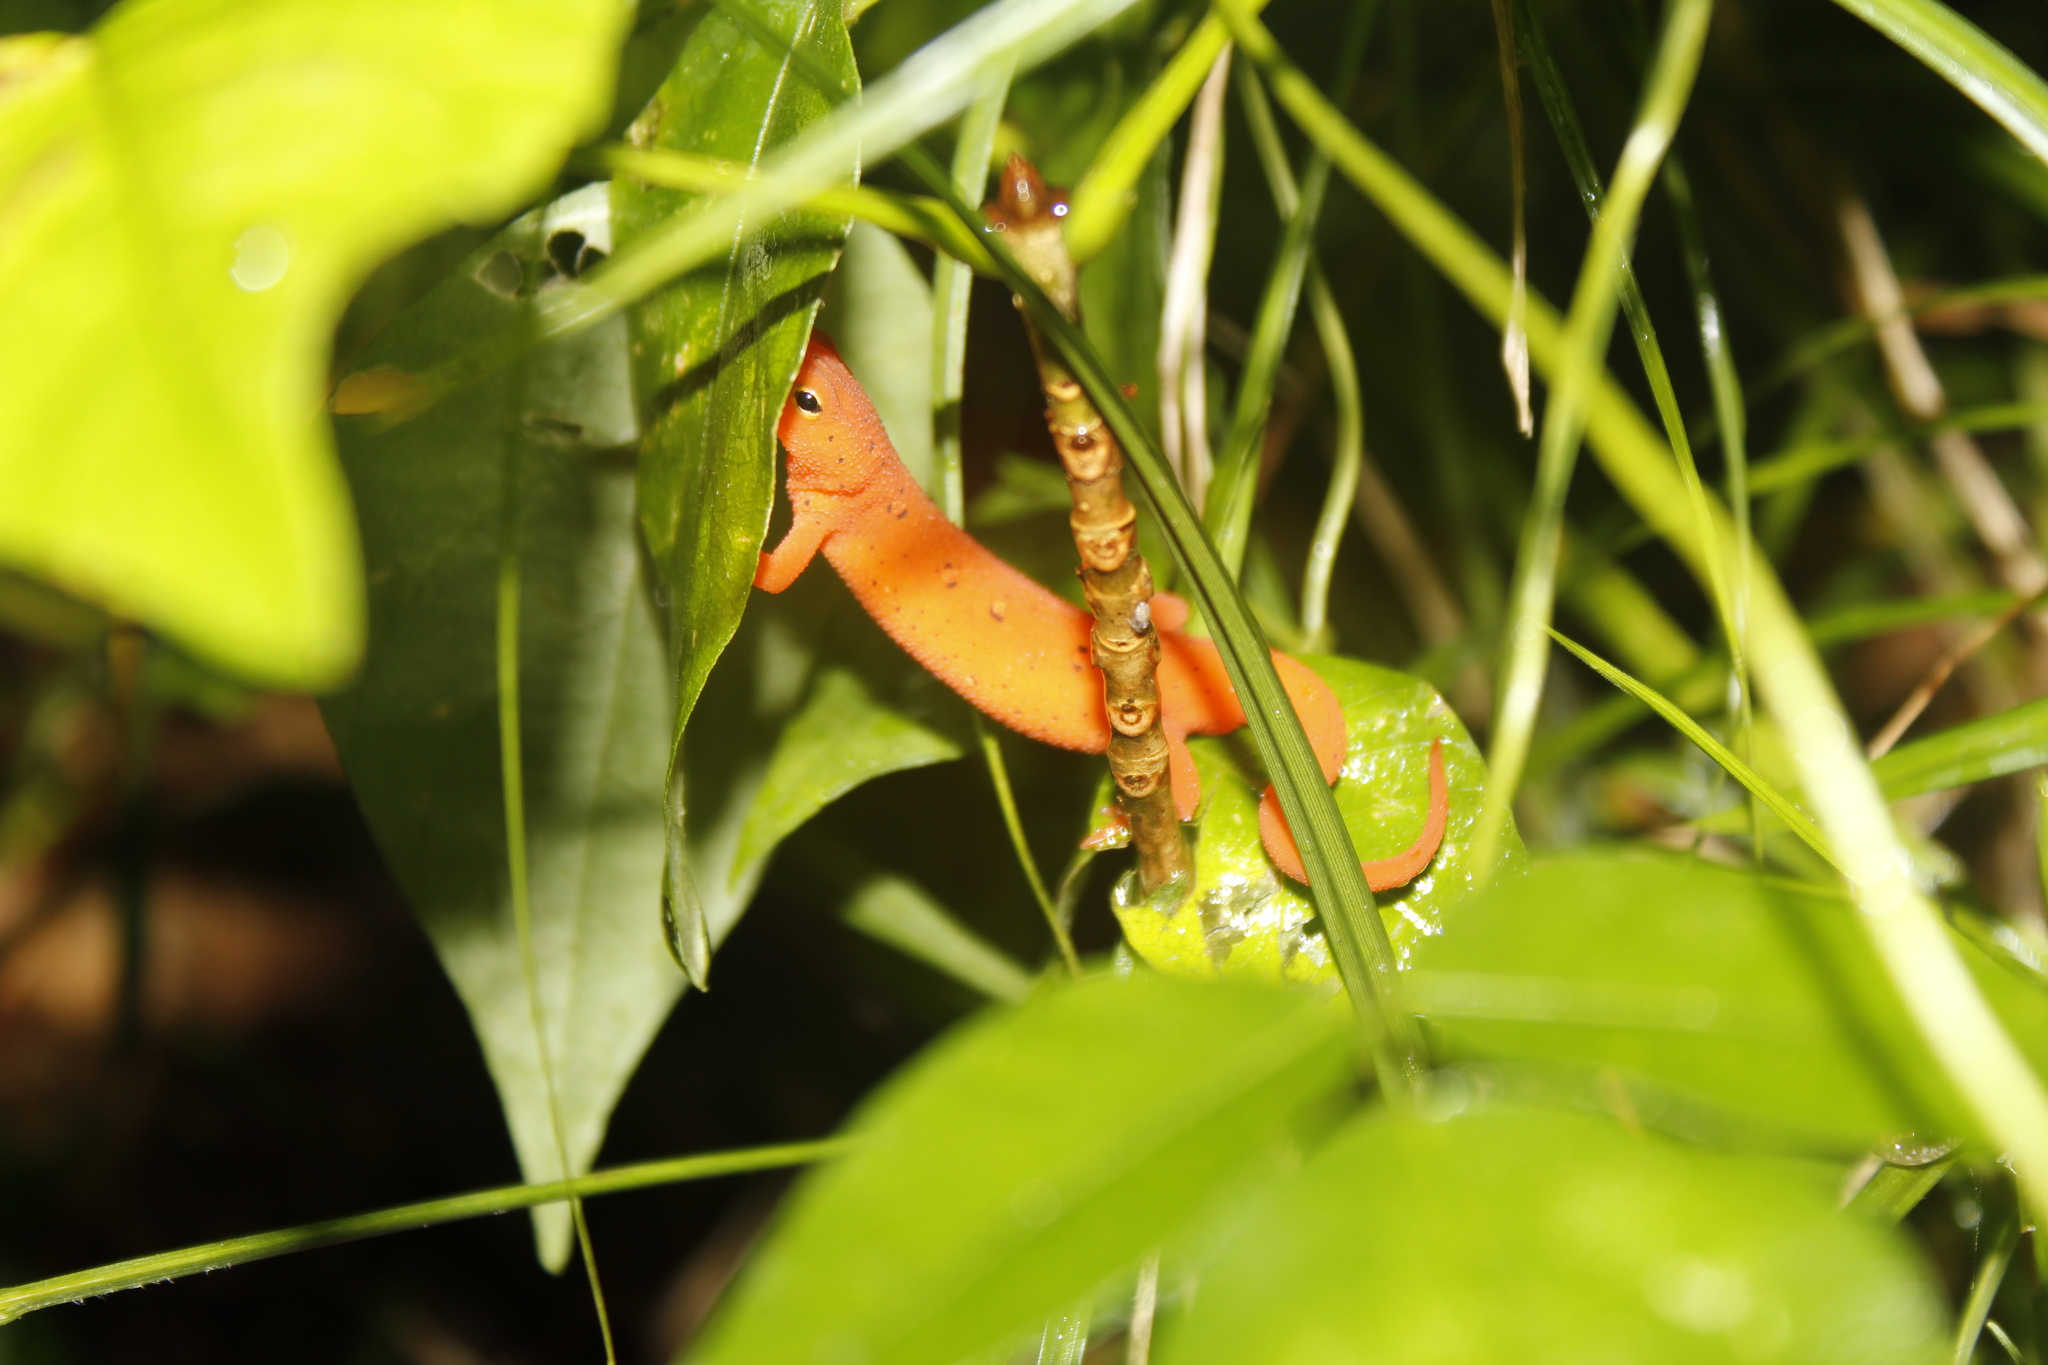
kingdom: Animalia
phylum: Chordata
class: Amphibia
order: Caudata
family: Salamandridae
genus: Notophthalmus
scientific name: Notophthalmus viridescens
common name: Eastern newt
